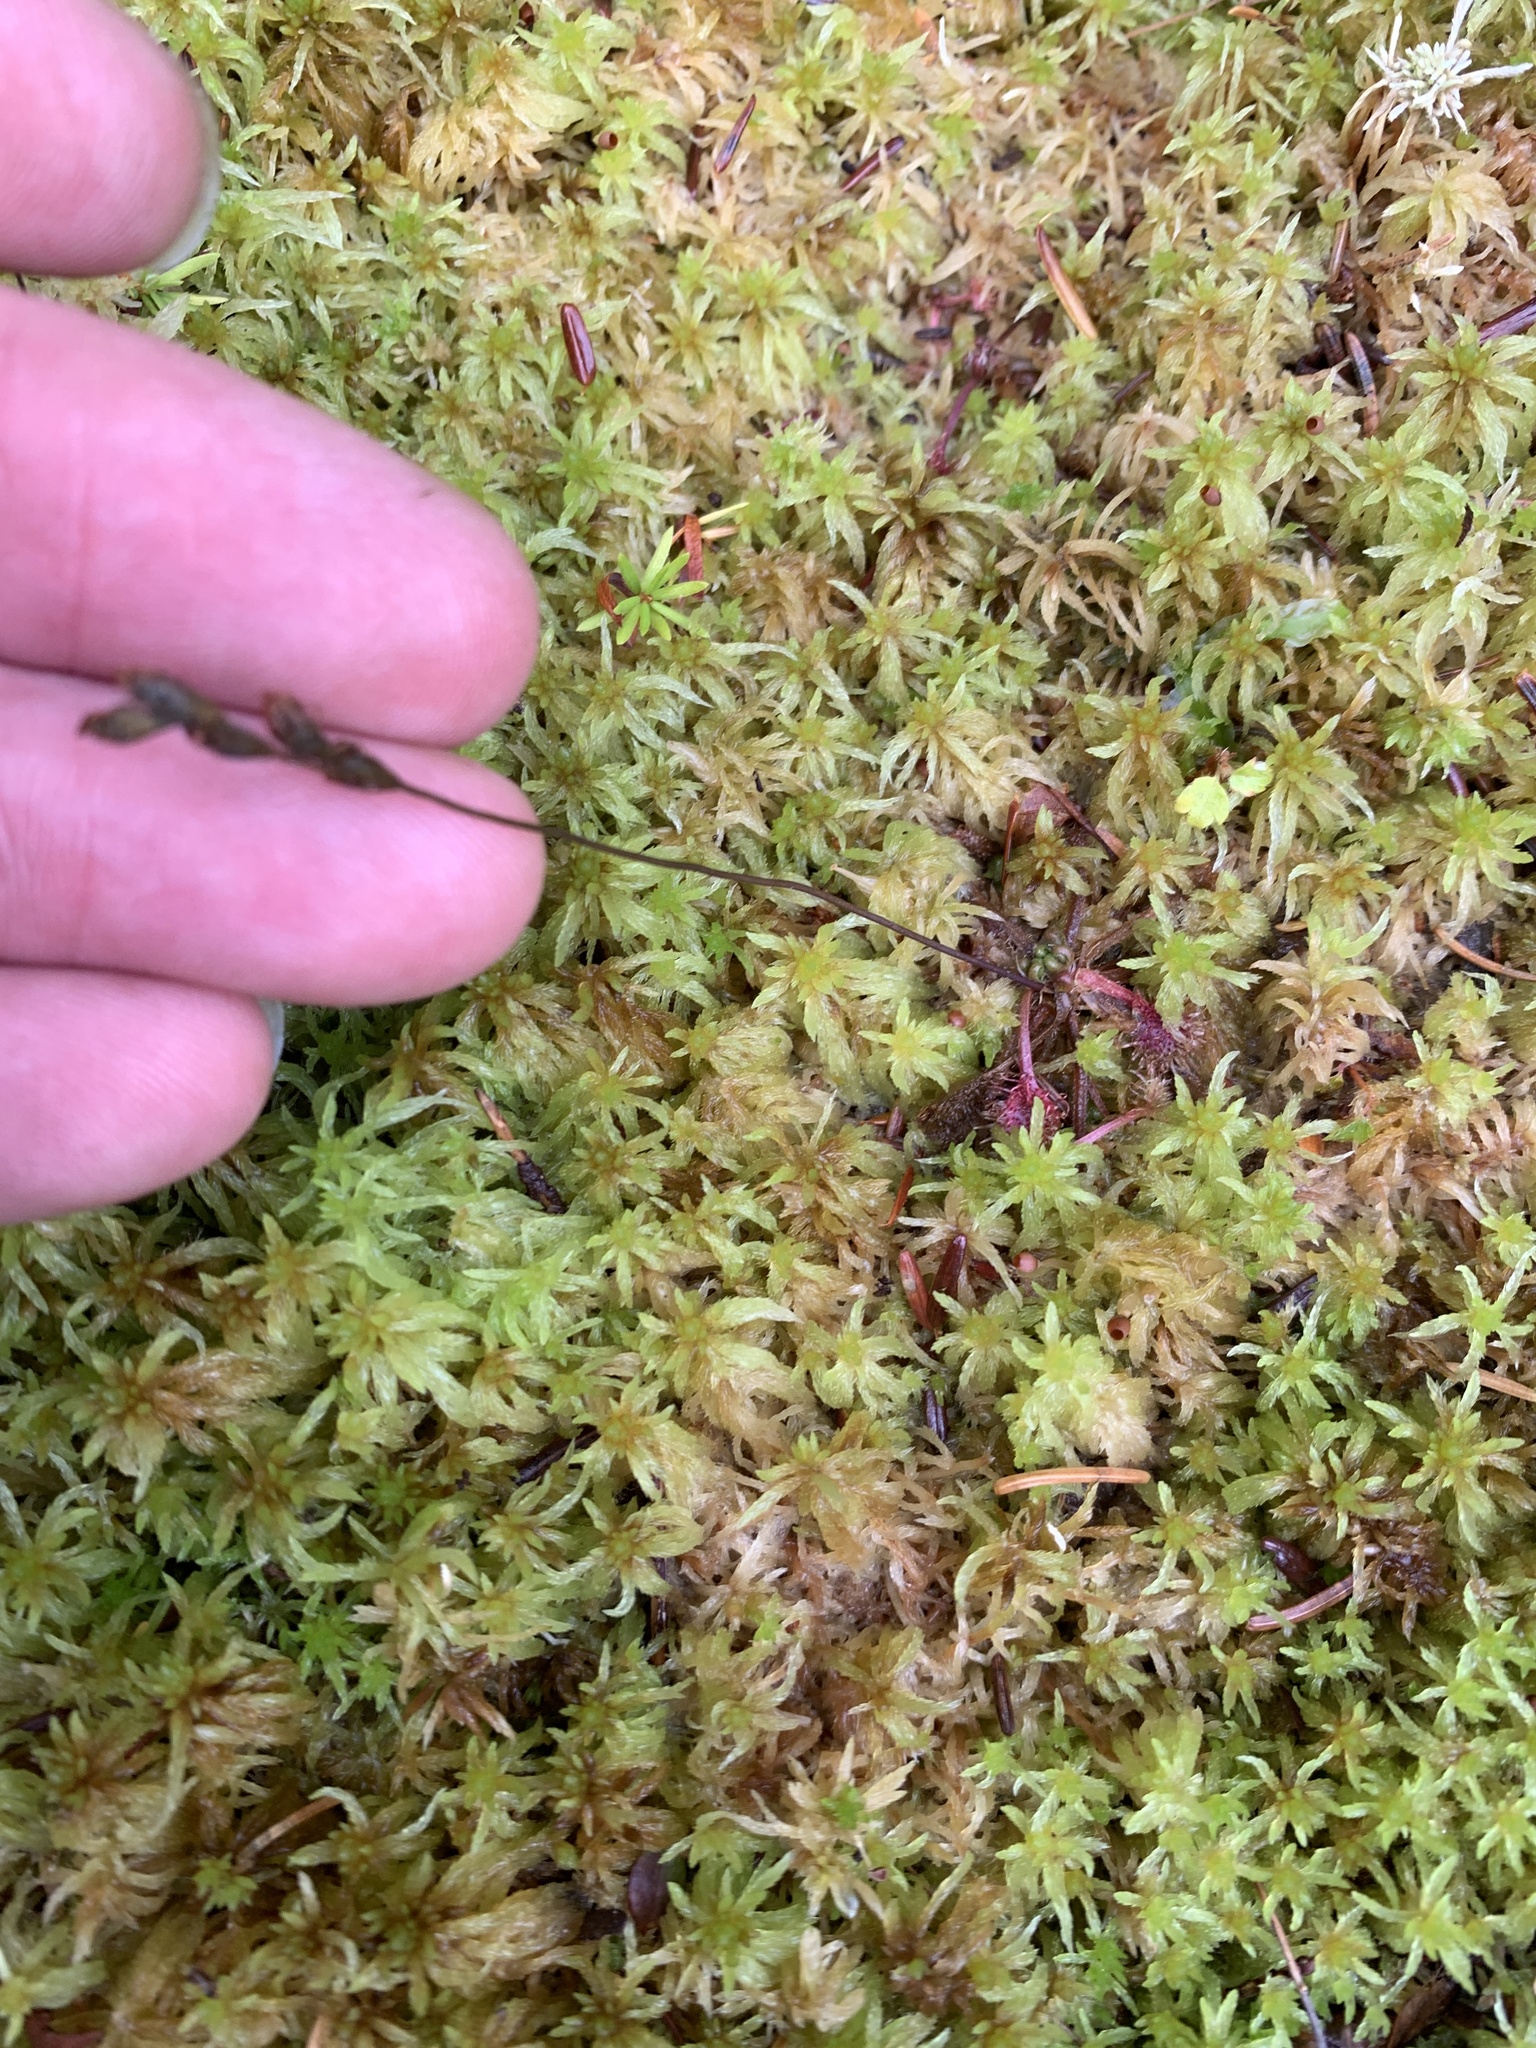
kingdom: Plantae
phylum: Tracheophyta
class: Magnoliopsida
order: Caryophyllales
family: Droseraceae
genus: Drosera
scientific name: Drosera rotundifolia
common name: Round-leaved sundew
